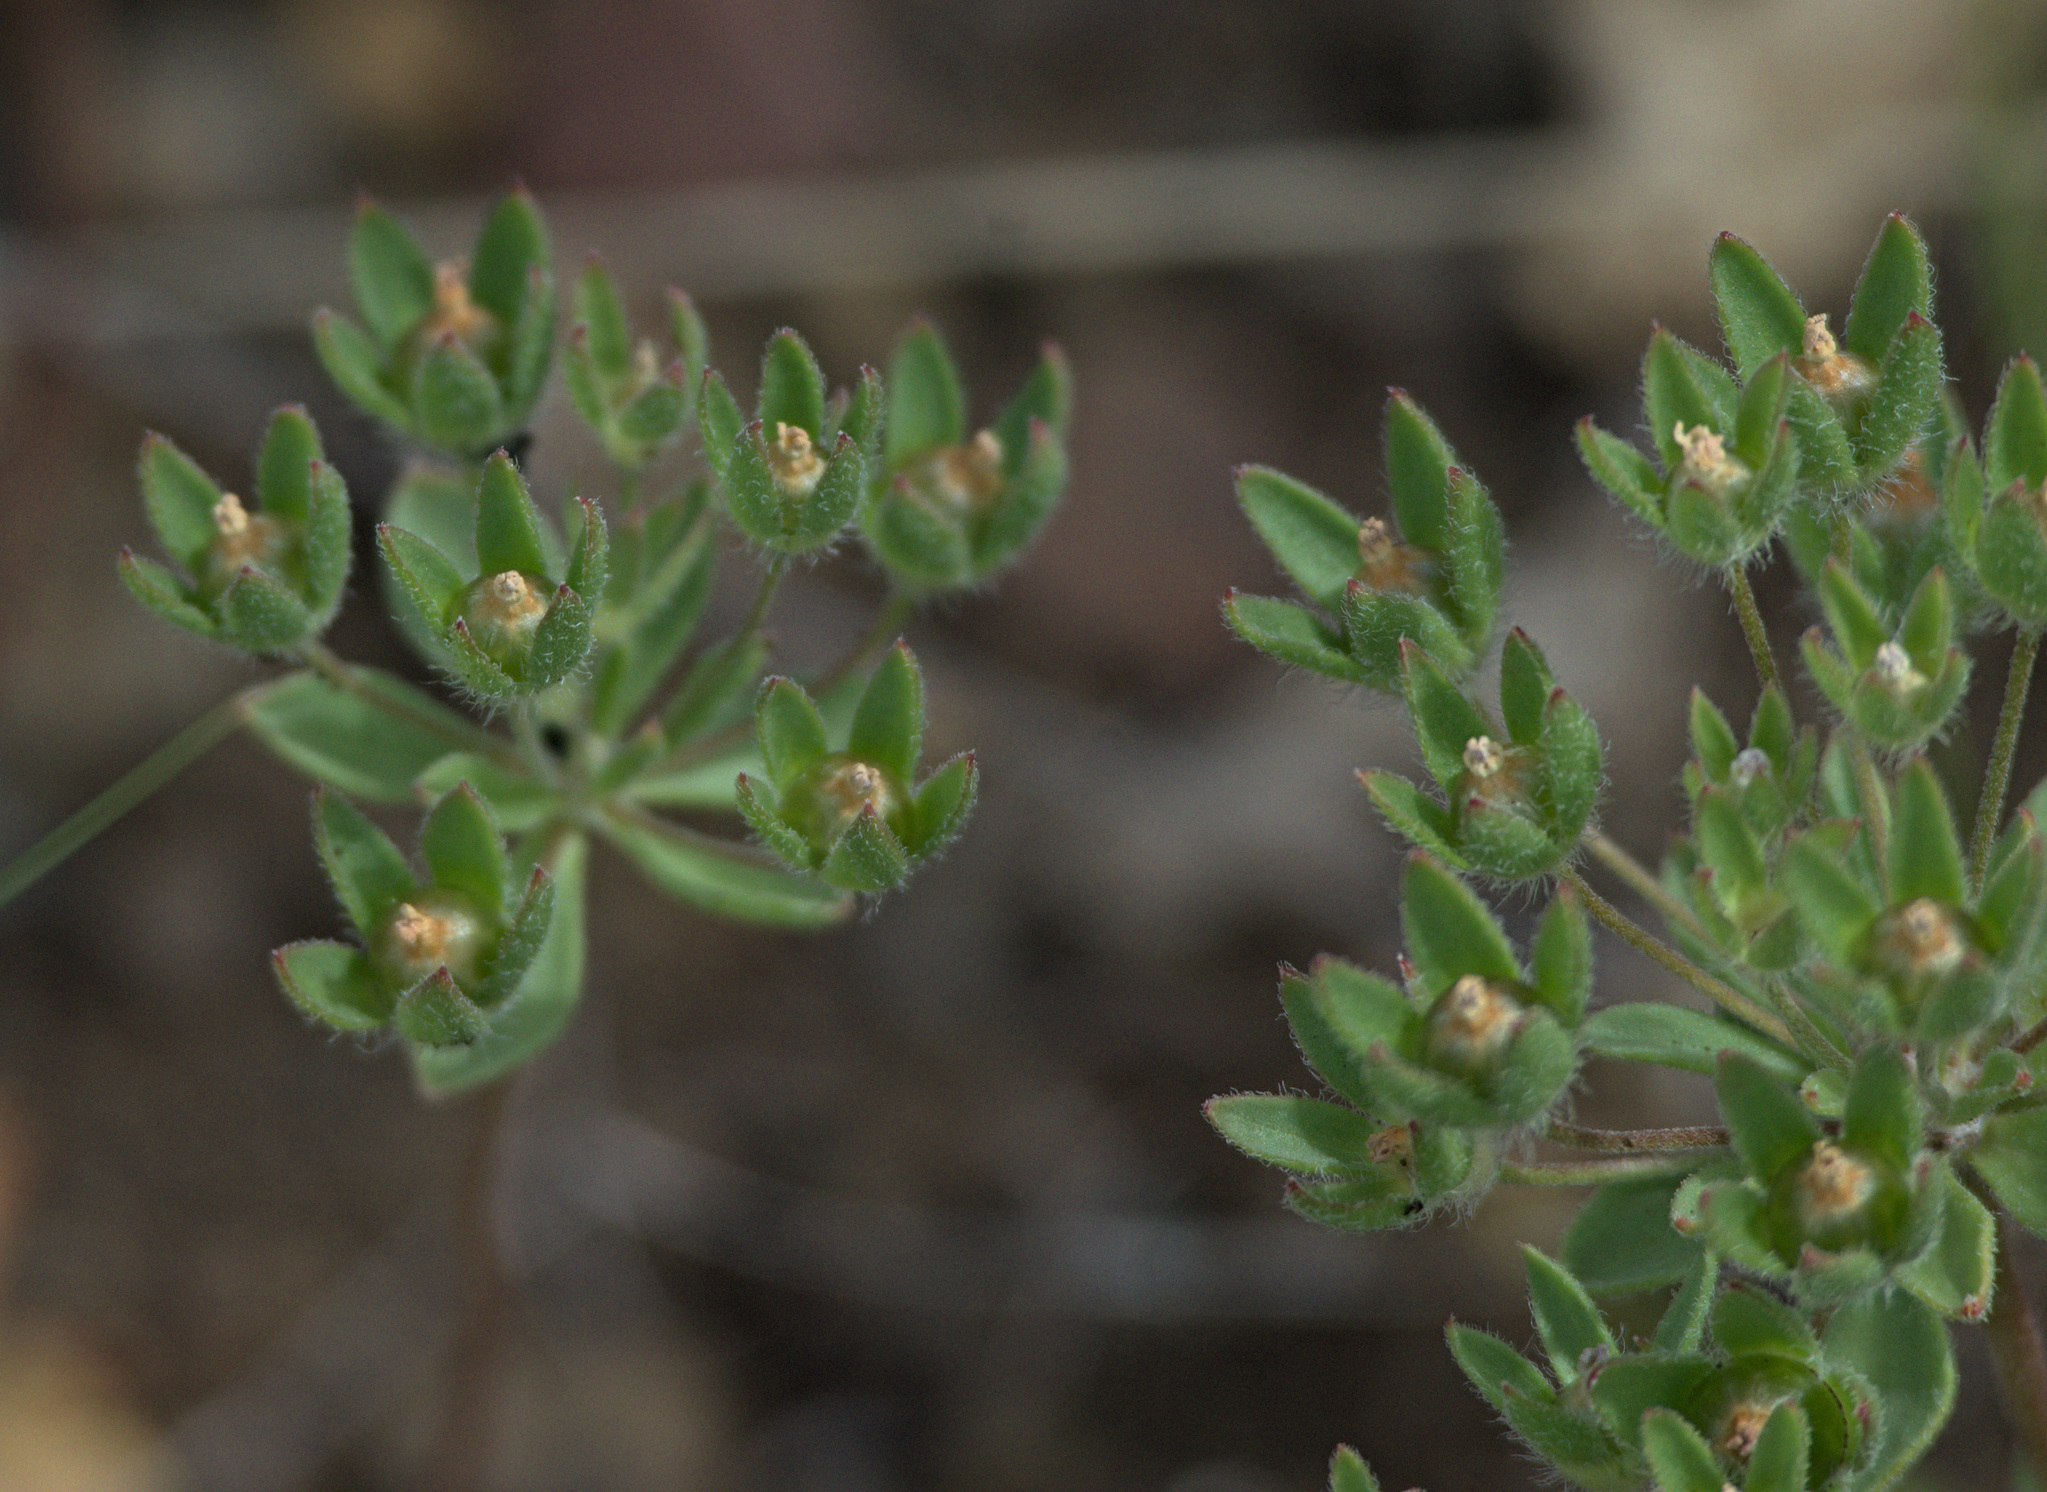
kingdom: Plantae
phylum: Tracheophyta
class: Magnoliopsida
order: Ericales
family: Primulaceae
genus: Androsace
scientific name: Androsace maxima
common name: Annual androsace
